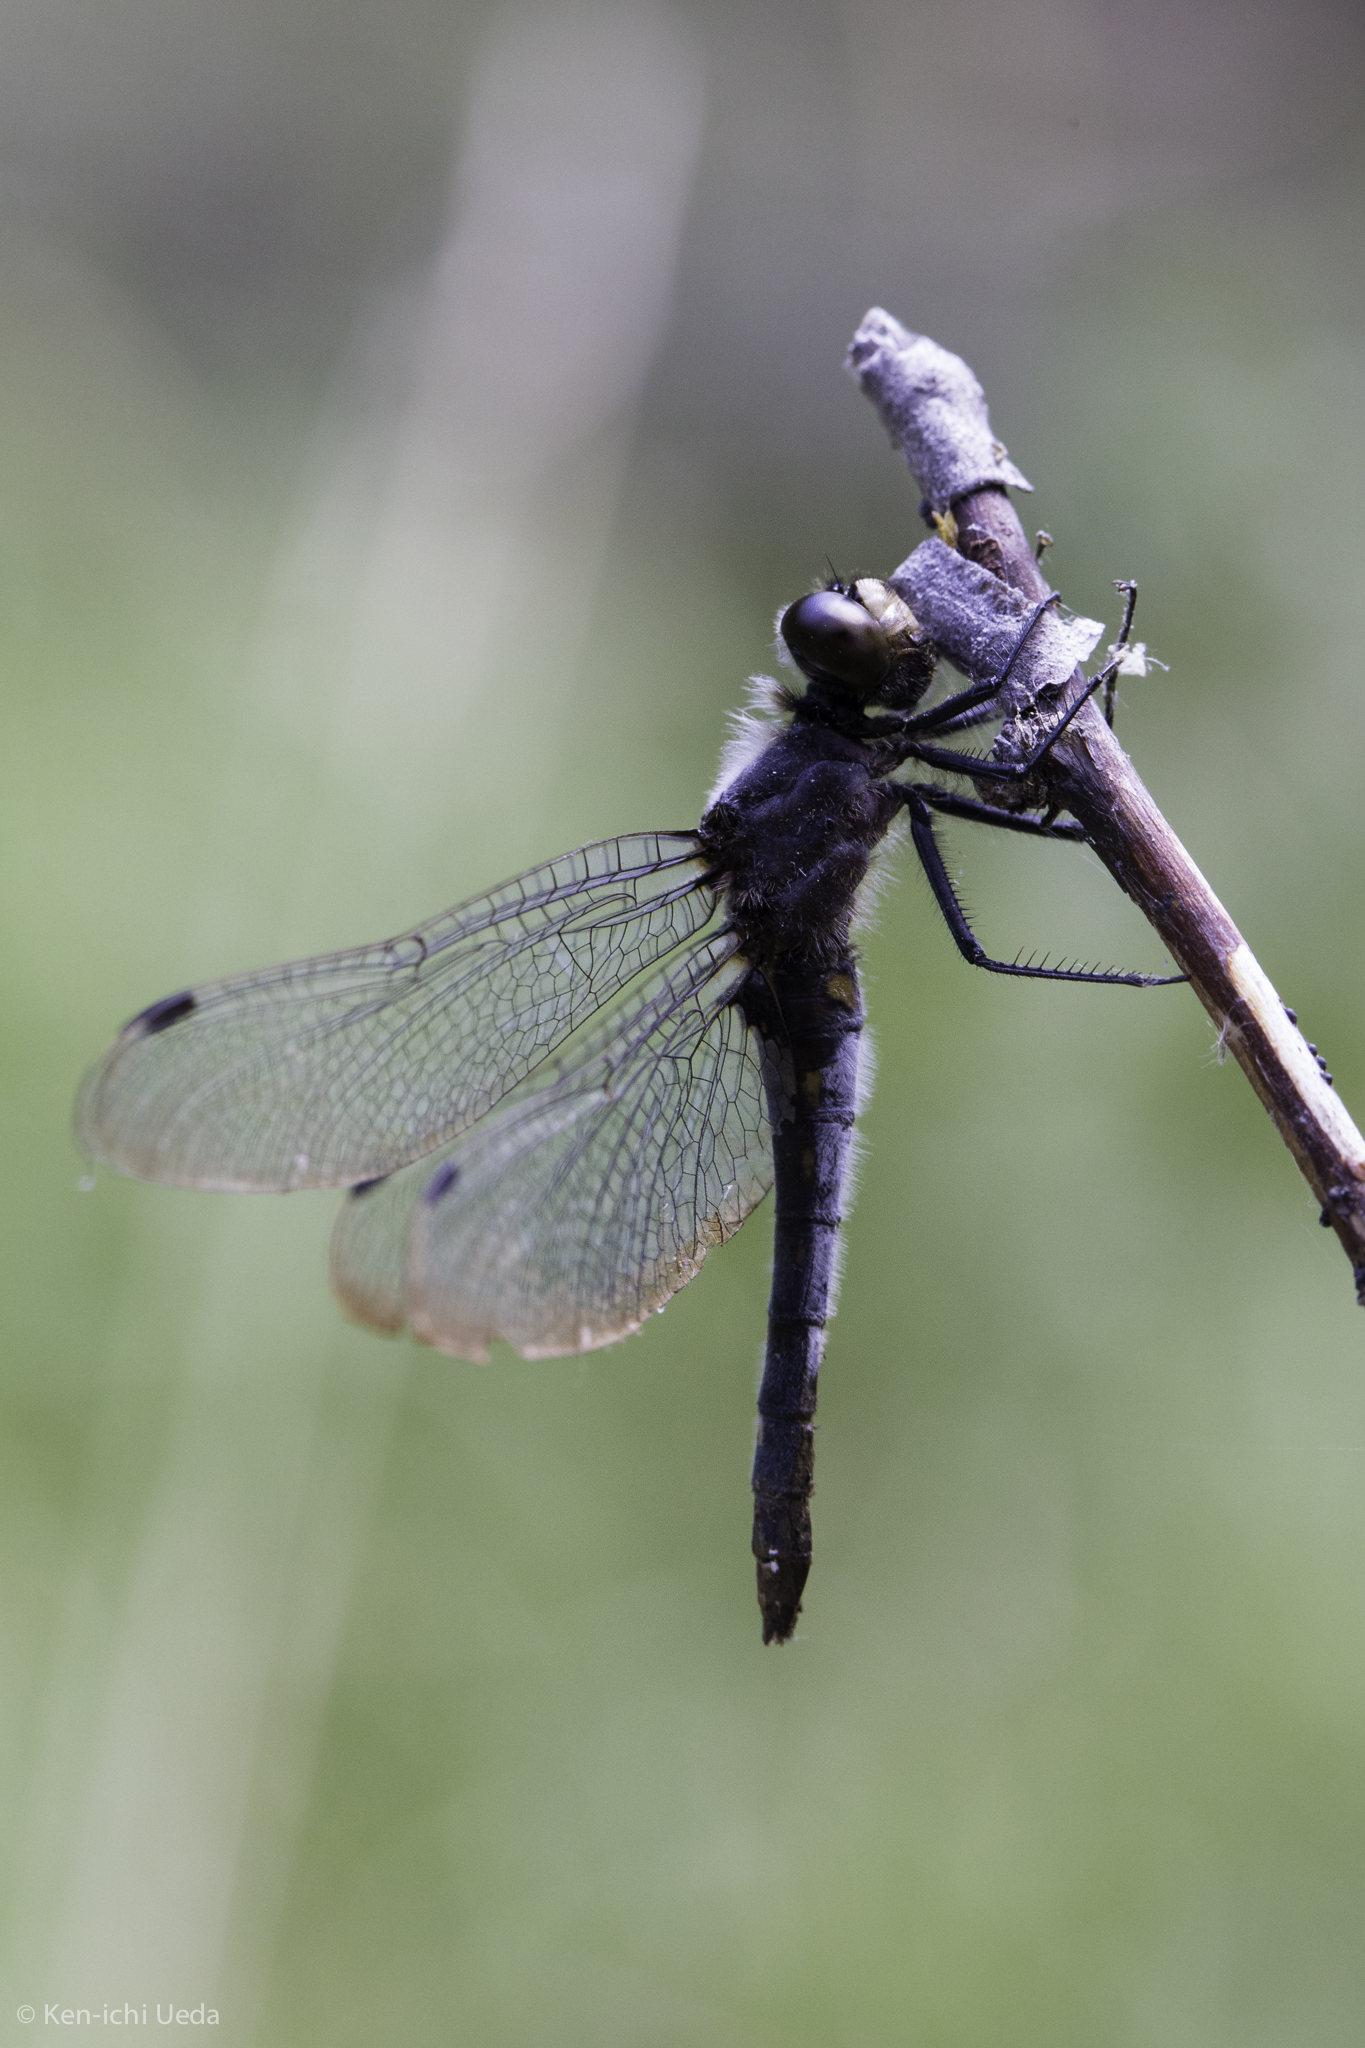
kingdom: Animalia
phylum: Arthropoda
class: Insecta
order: Odonata
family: Libellulidae
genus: Leucorrhinia
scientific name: Leucorrhinia intacta
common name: Dot-tailed whiteface
